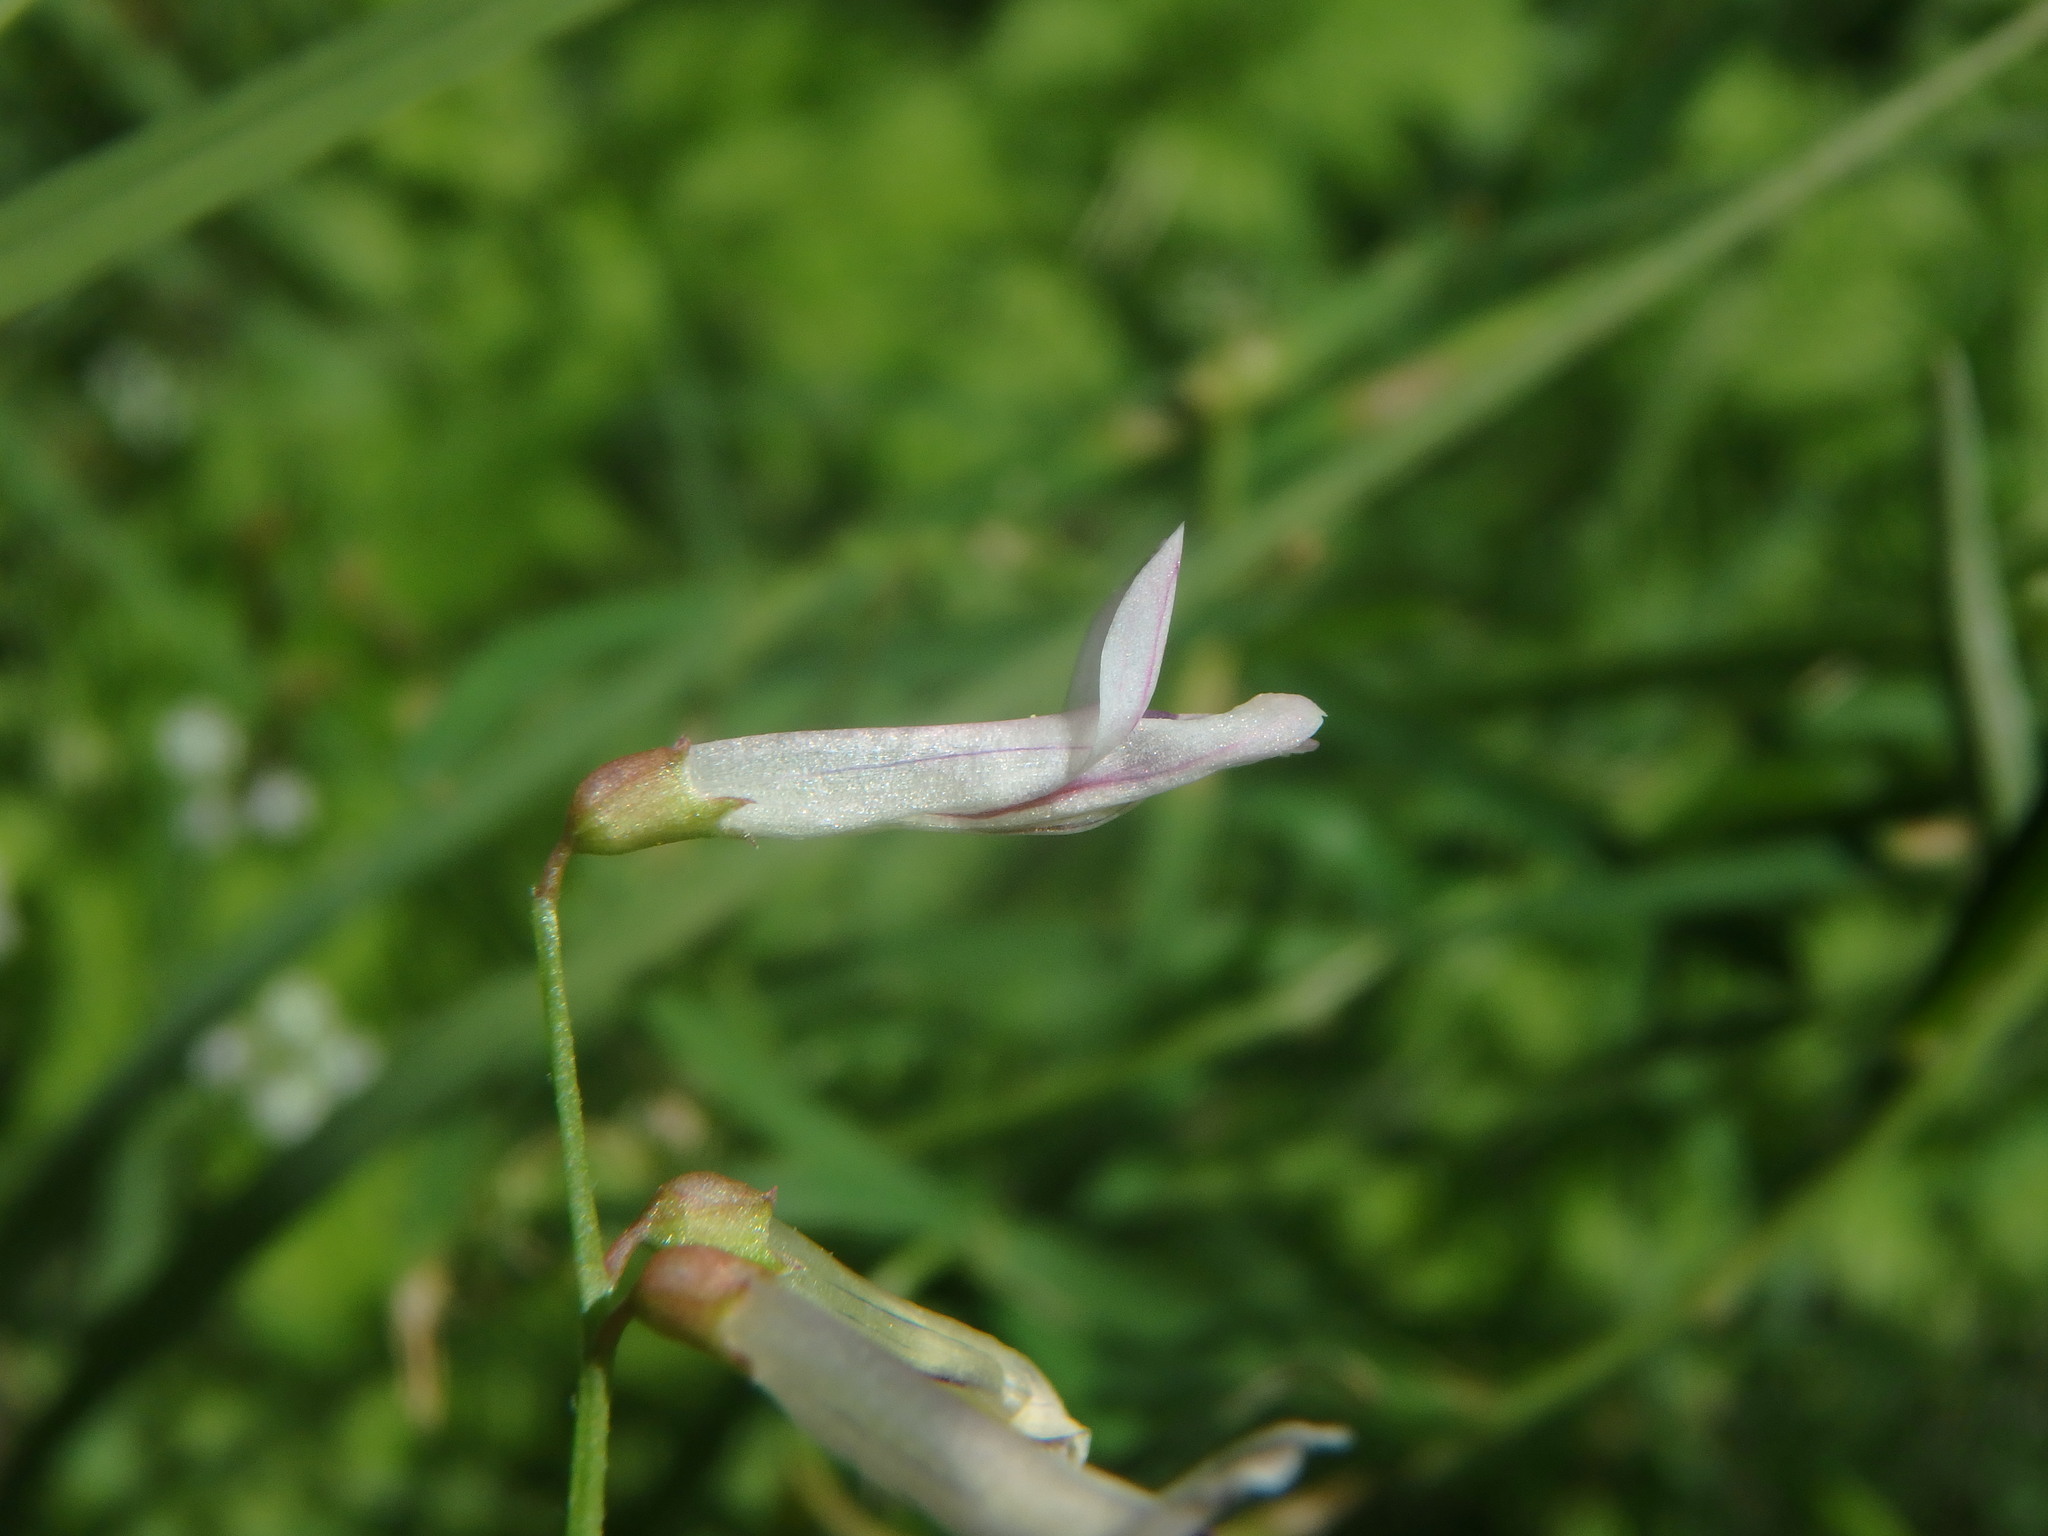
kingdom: Plantae
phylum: Tracheophyta
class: Magnoliopsida
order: Fabales
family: Fabaceae
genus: Vicia
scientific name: Vicia aphylla
